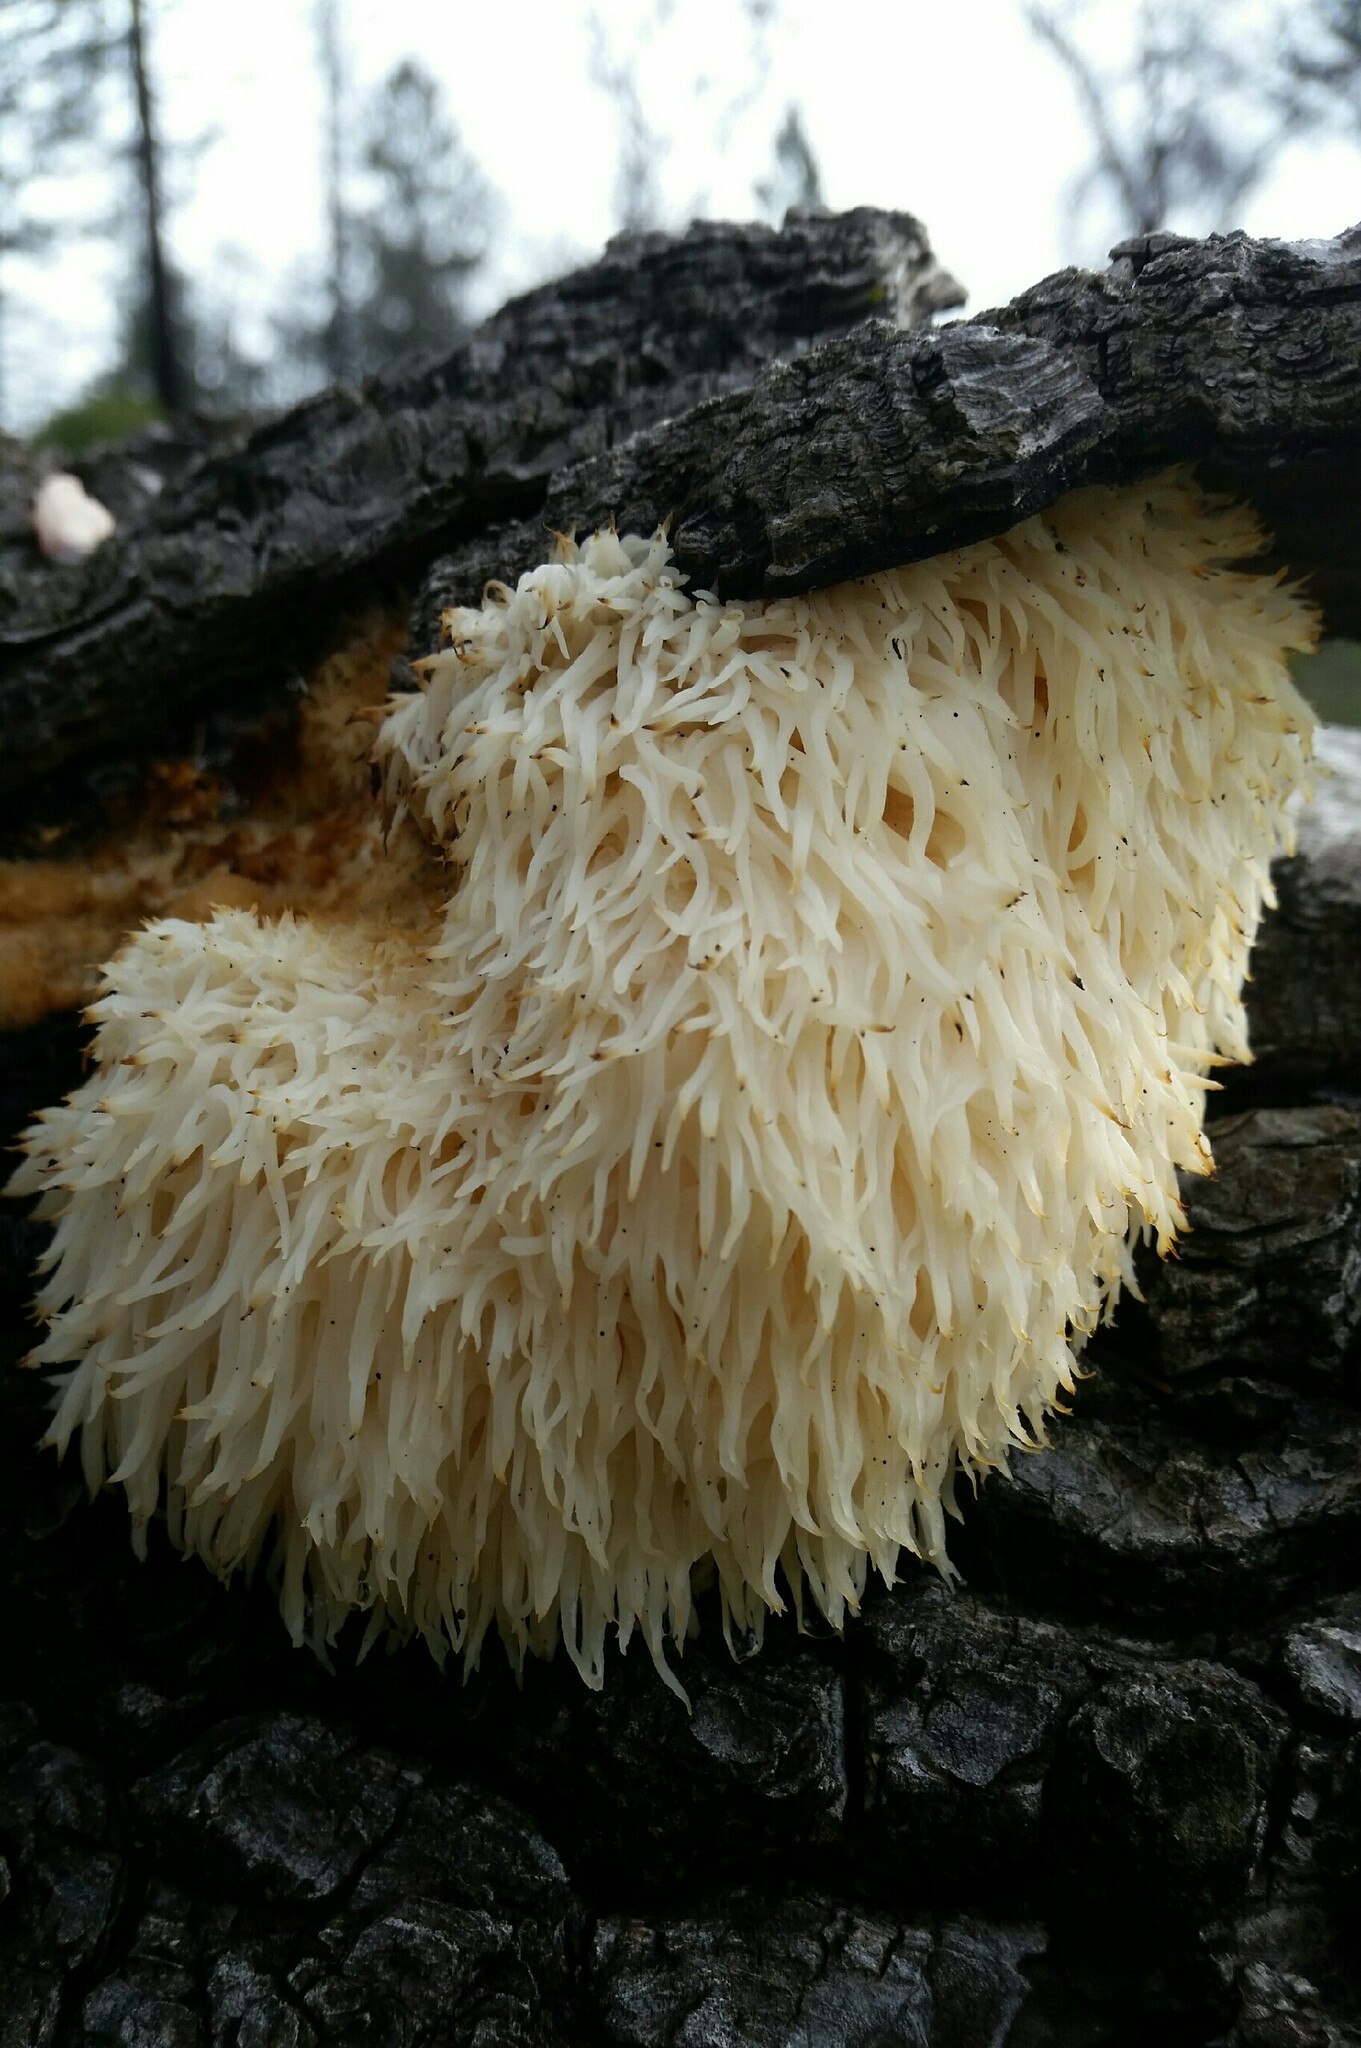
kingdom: Fungi
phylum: Basidiomycota
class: Agaricomycetes
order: Russulales
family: Hericiaceae
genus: Hericium
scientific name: Hericium erinaceus
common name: Bearded tooth
